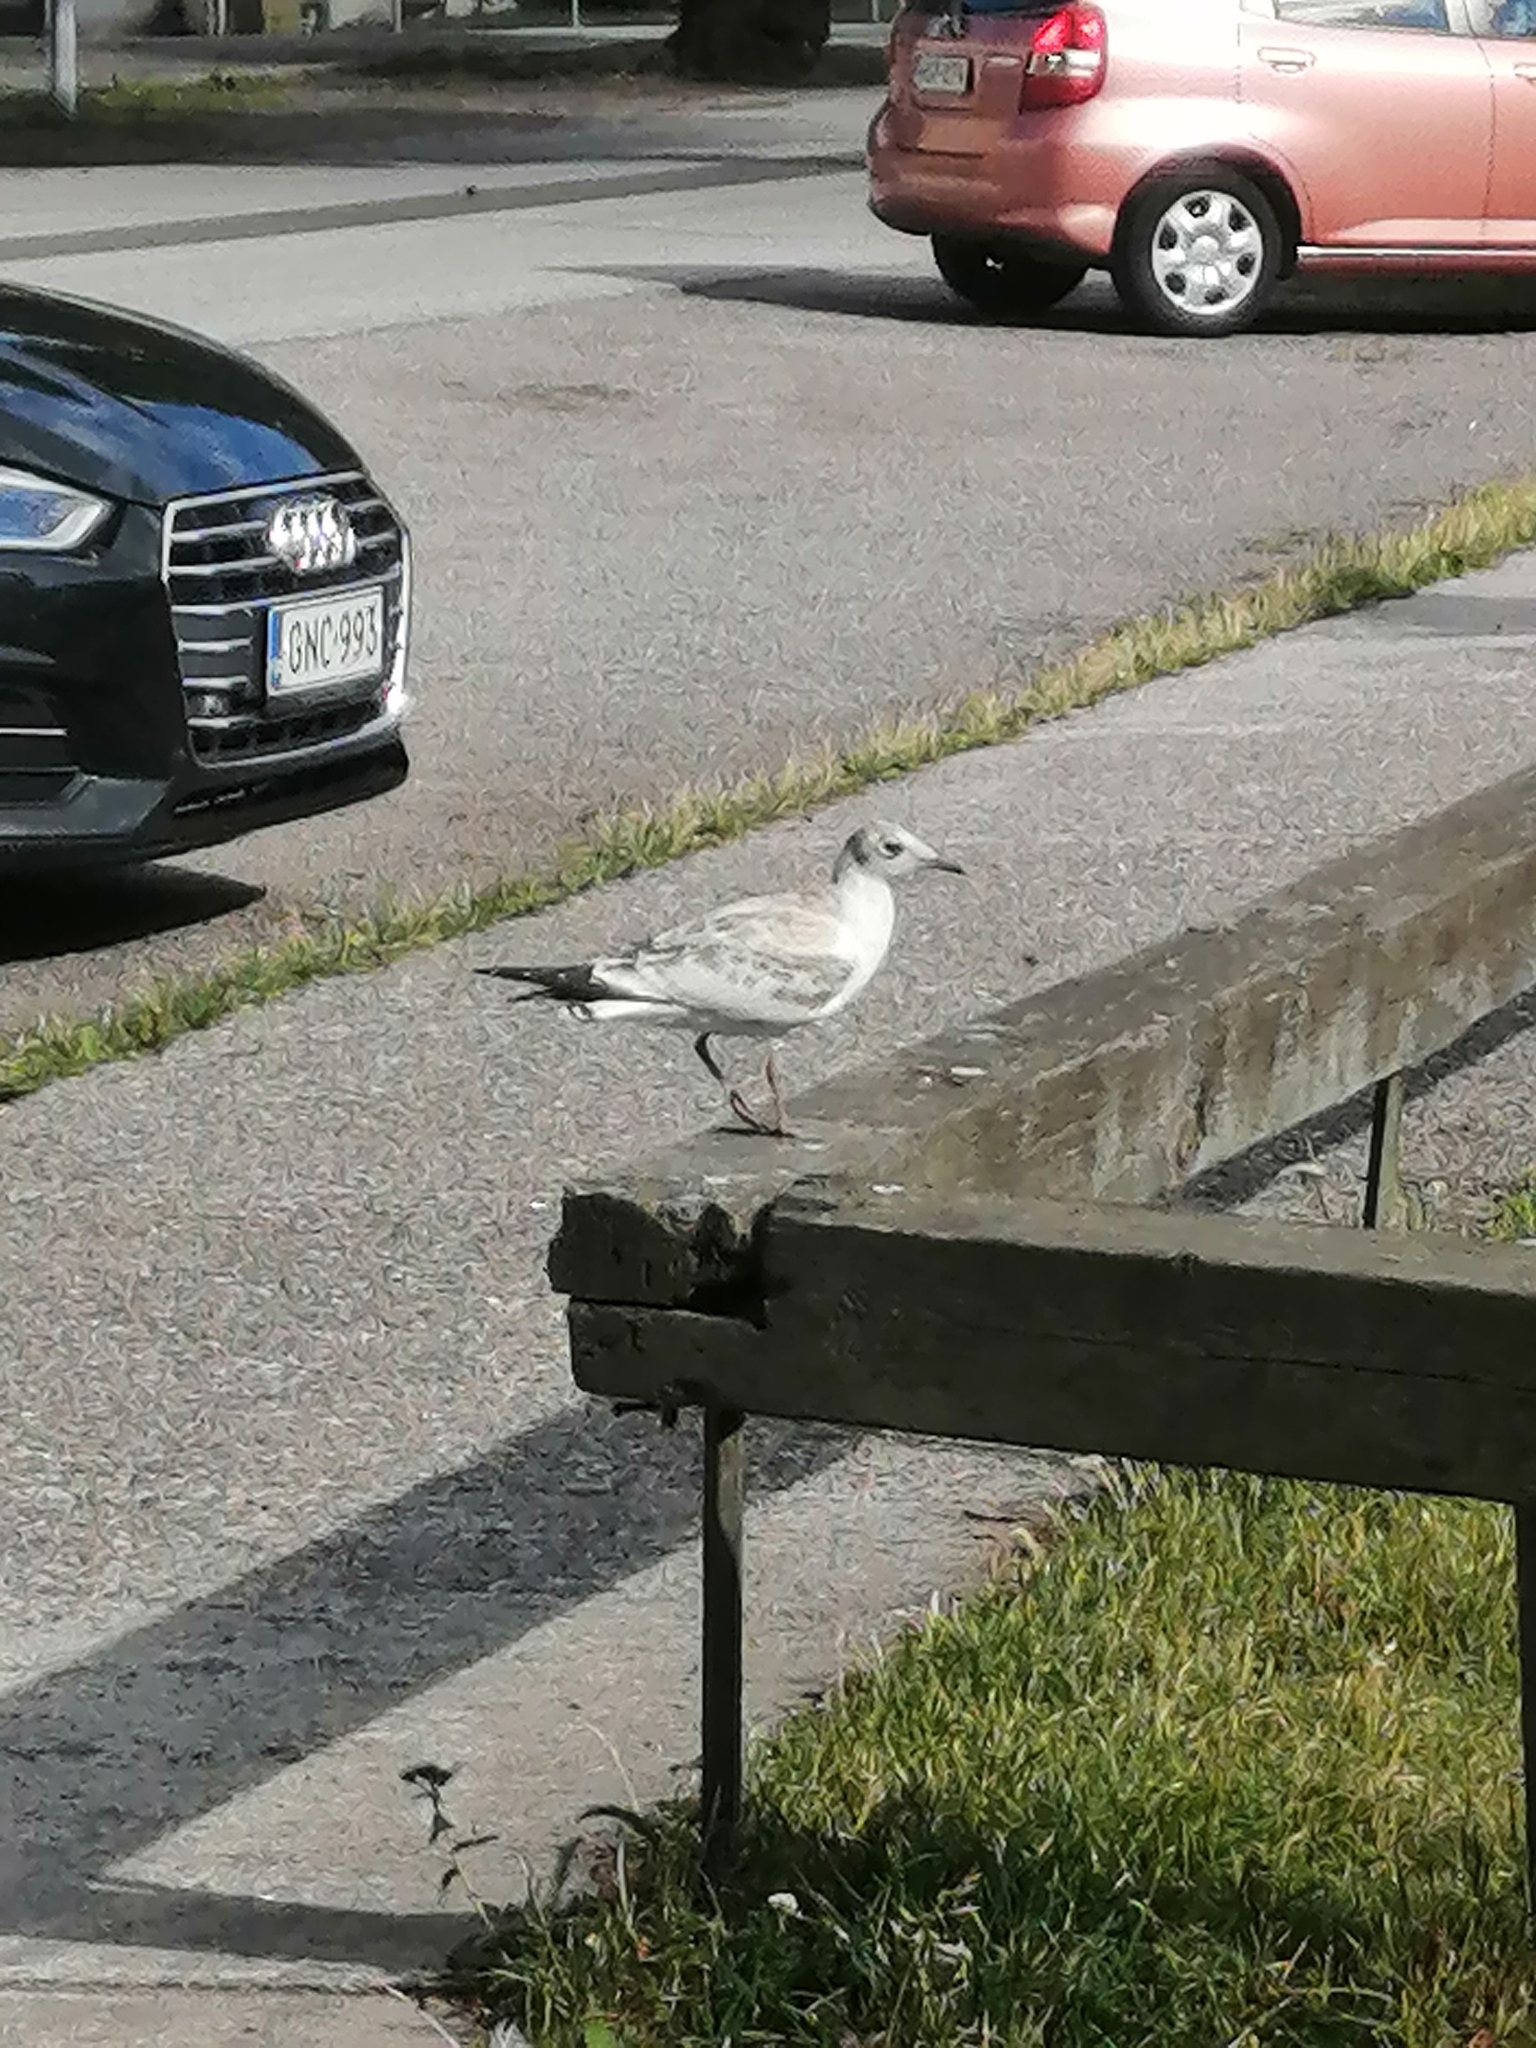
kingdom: Animalia
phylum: Chordata
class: Aves
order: Charadriiformes
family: Laridae
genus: Chroicocephalus
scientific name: Chroicocephalus ridibundus
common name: Black-headed gull
